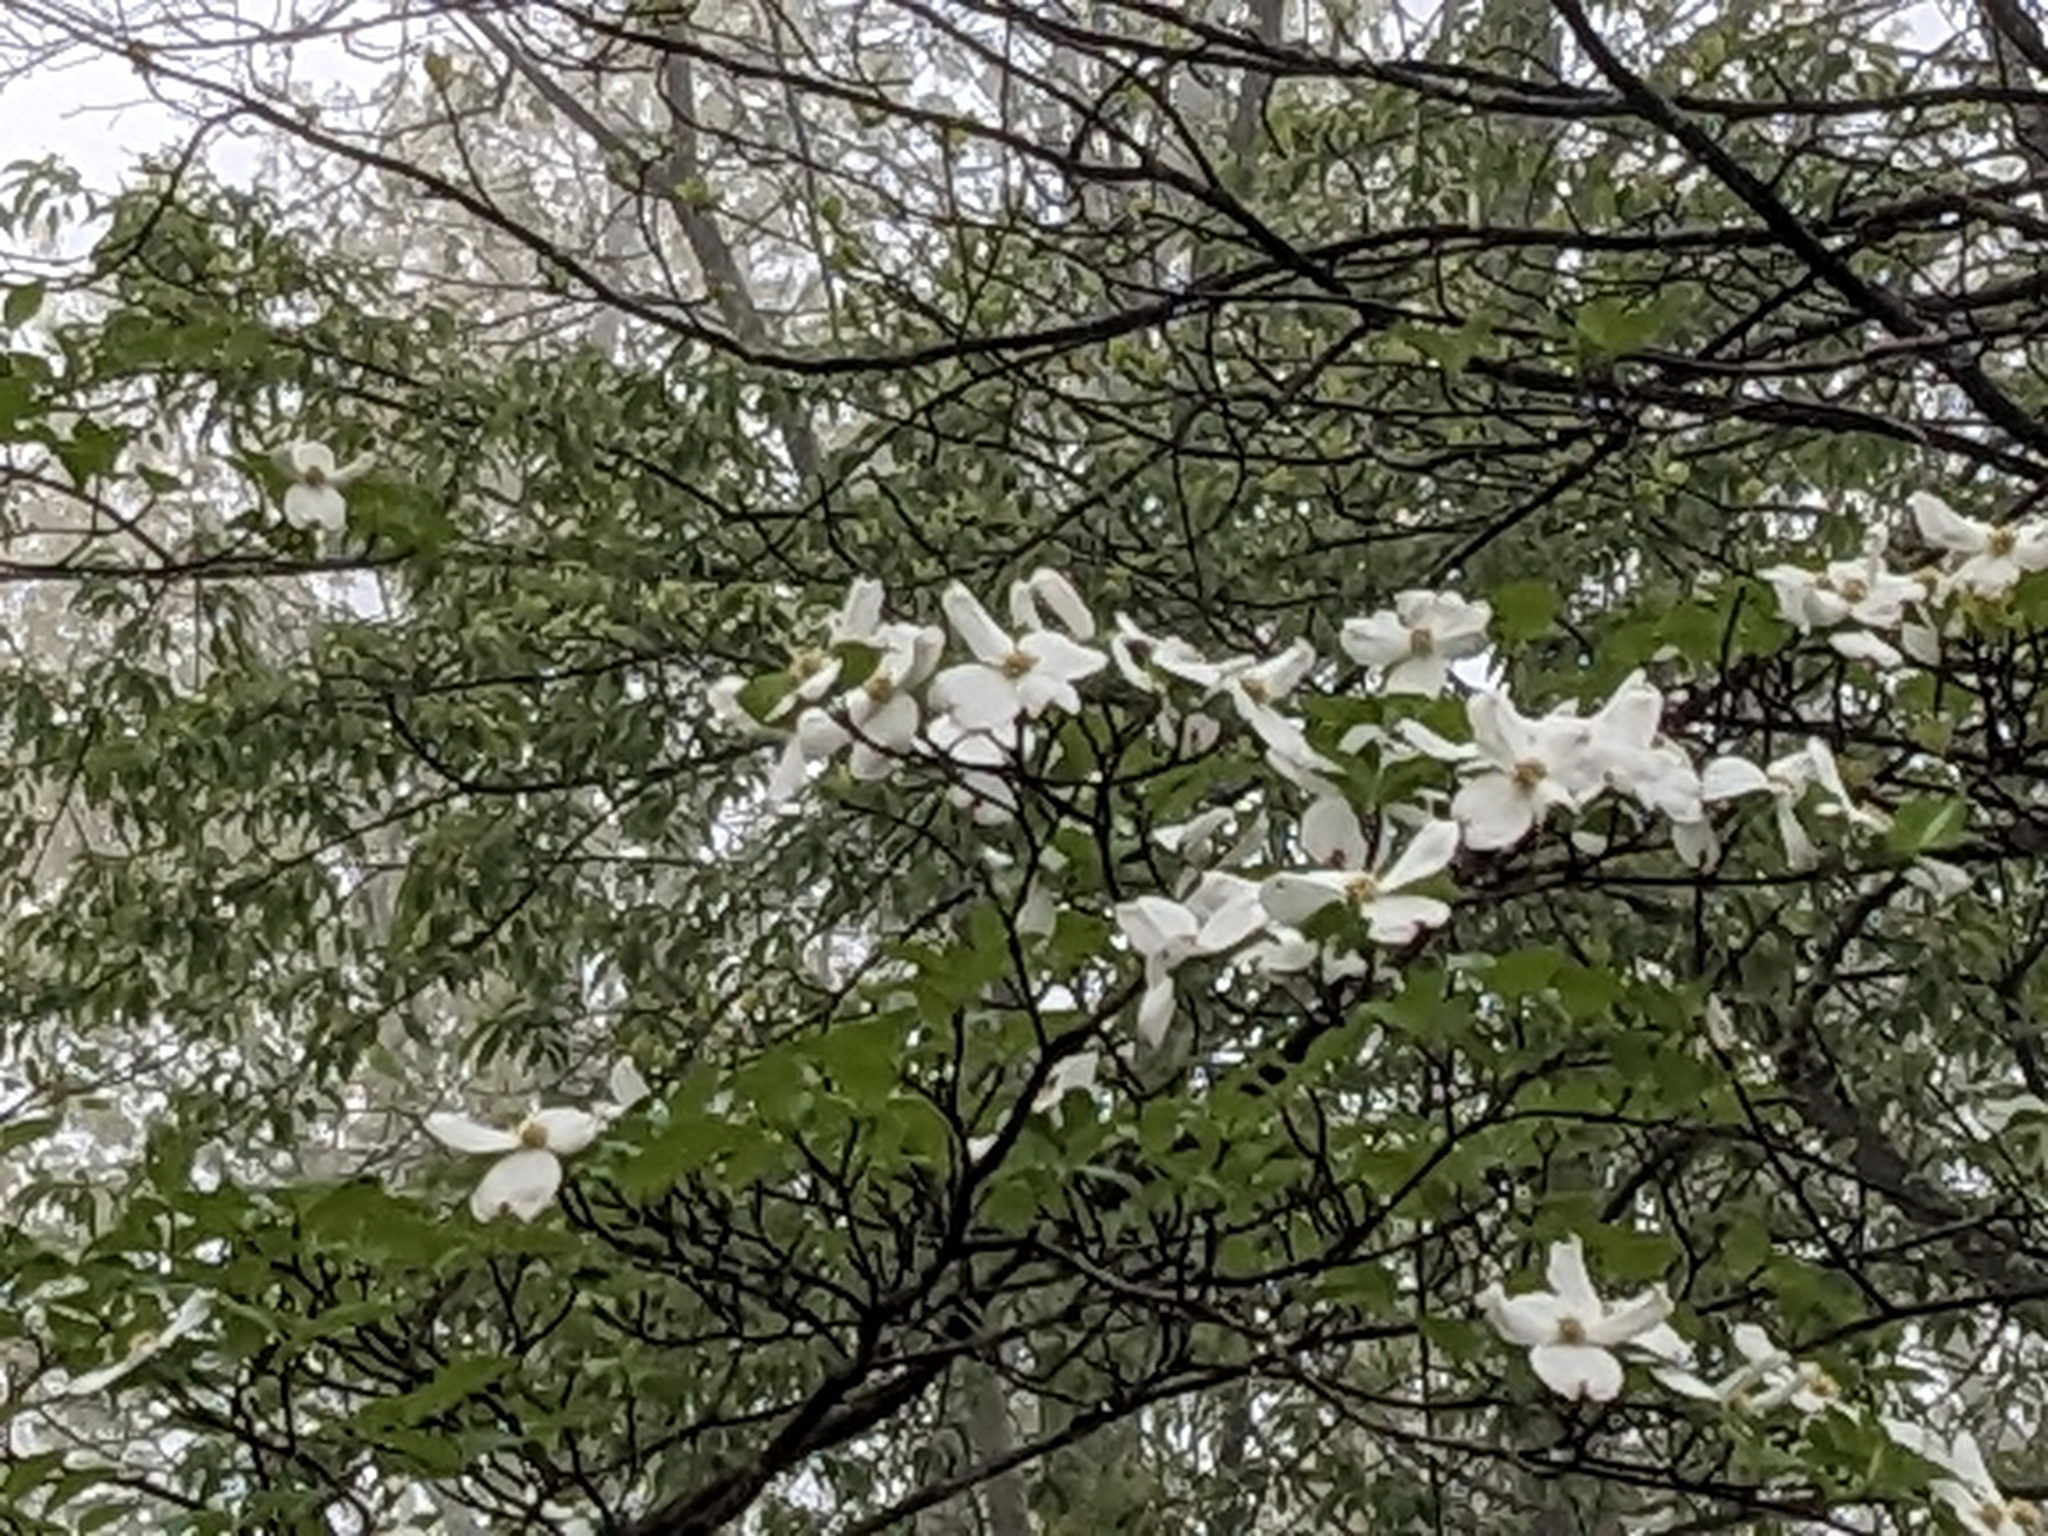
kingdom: Plantae
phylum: Tracheophyta
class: Magnoliopsida
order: Cornales
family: Cornaceae
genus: Cornus
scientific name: Cornus florida
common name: Flowering dogwood
